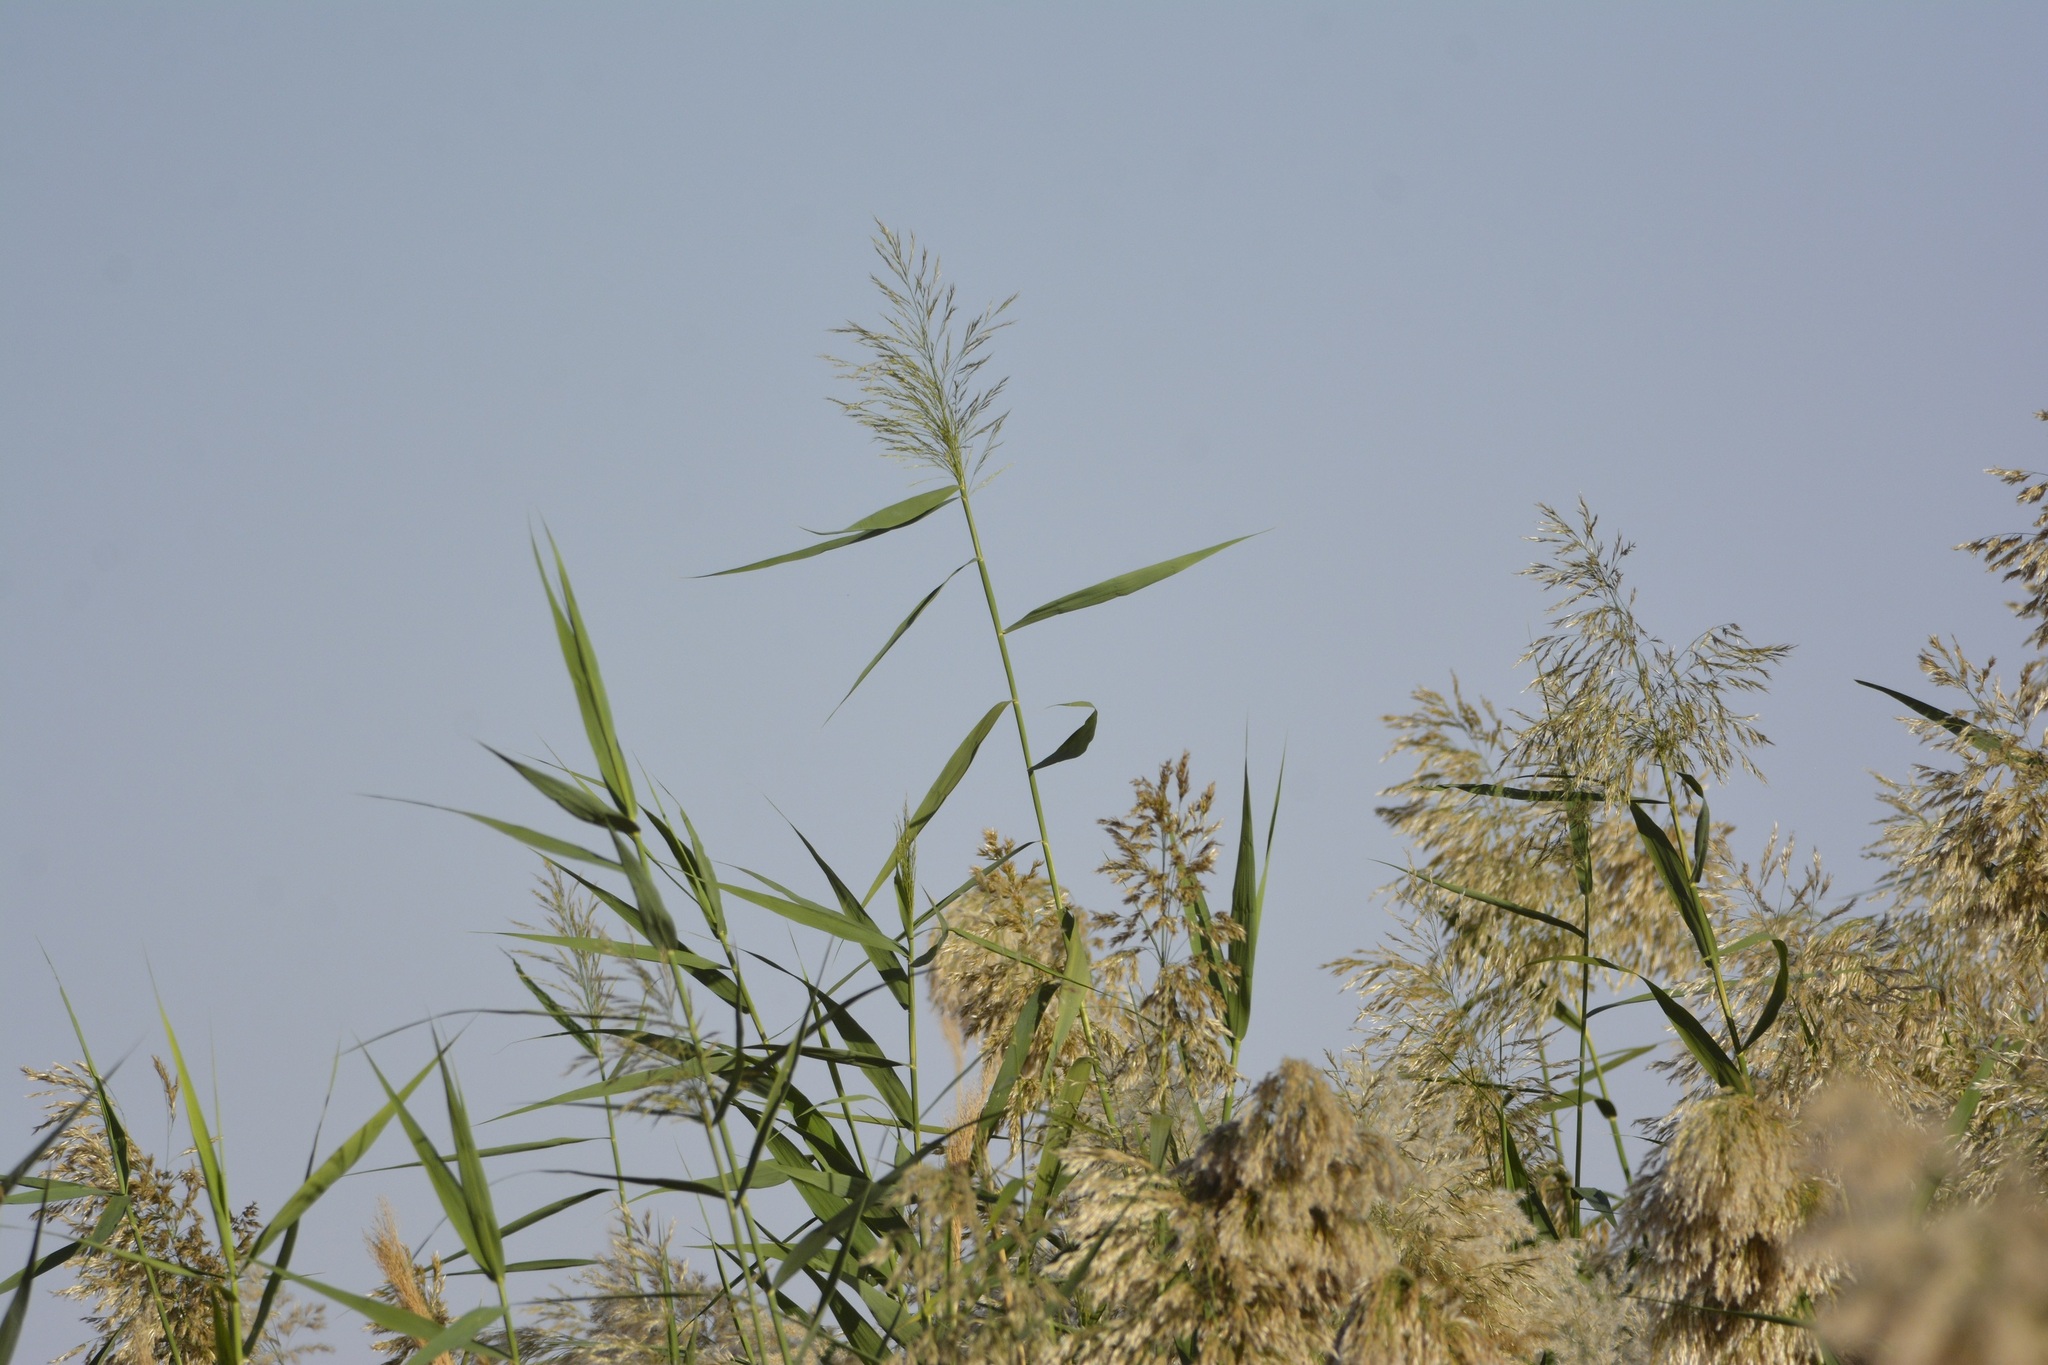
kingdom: Plantae
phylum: Tracheophyta
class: Liliopsida
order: Poales
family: Poaceae
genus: Phragmites
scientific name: Phragmites australis
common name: Common reed
